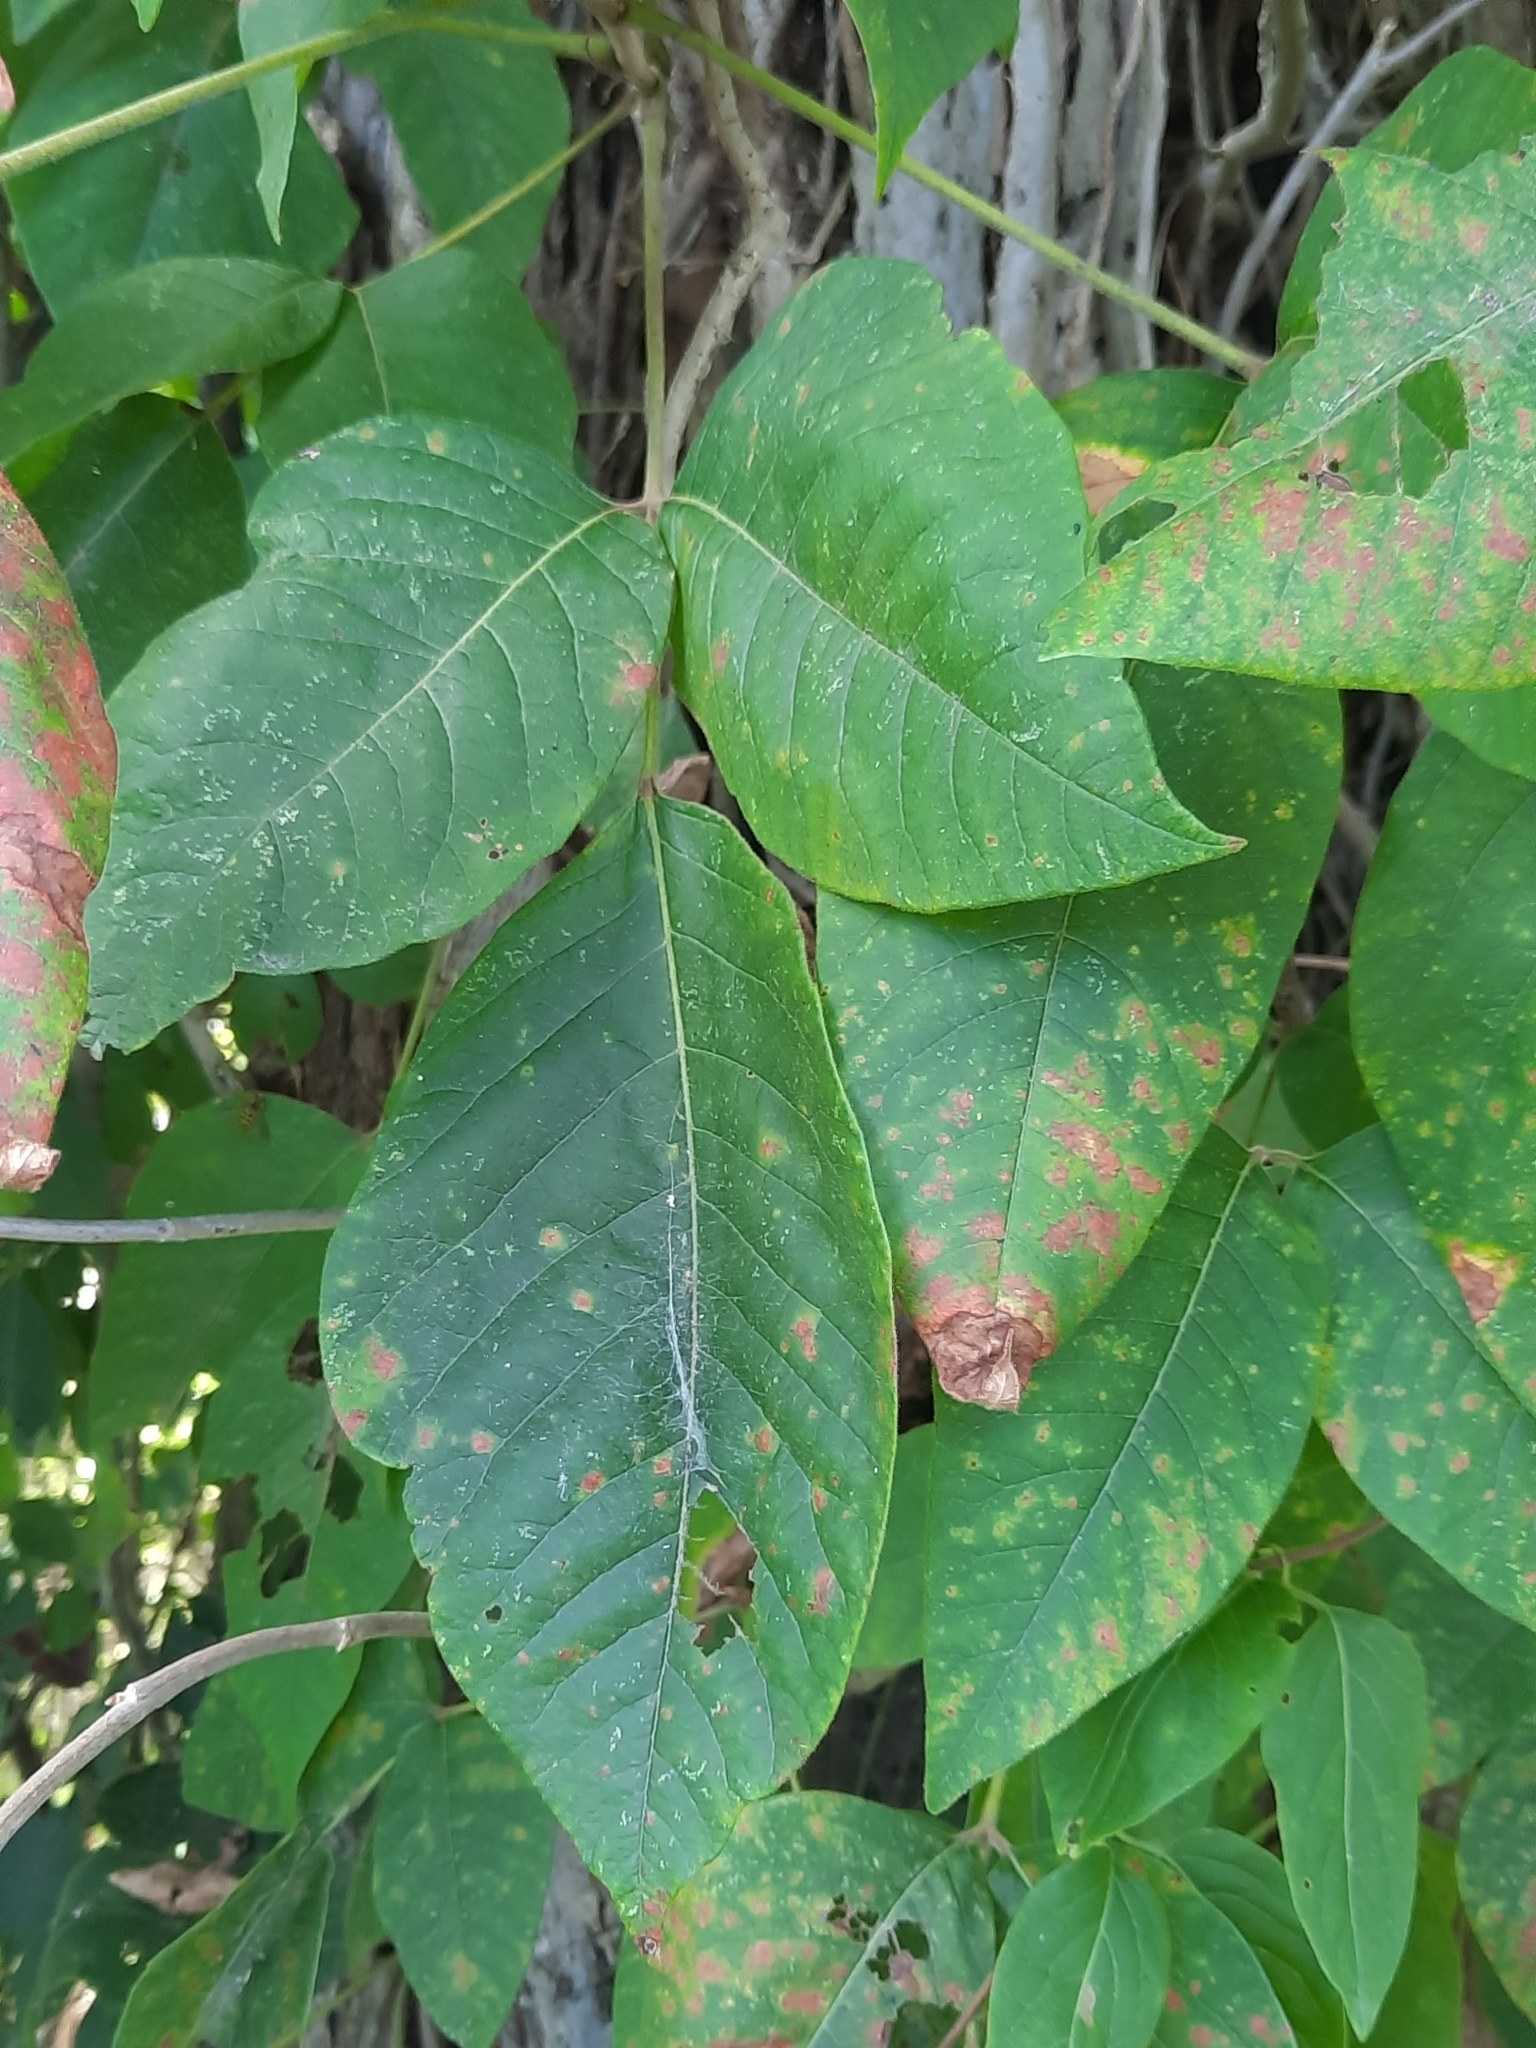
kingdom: Plantae
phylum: Tracheophyta
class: Magnoliopsida
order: Sapindales
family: Anacardiaceae
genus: Toxicodendron
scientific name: Toxicodendron radicans
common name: Poison ivy
